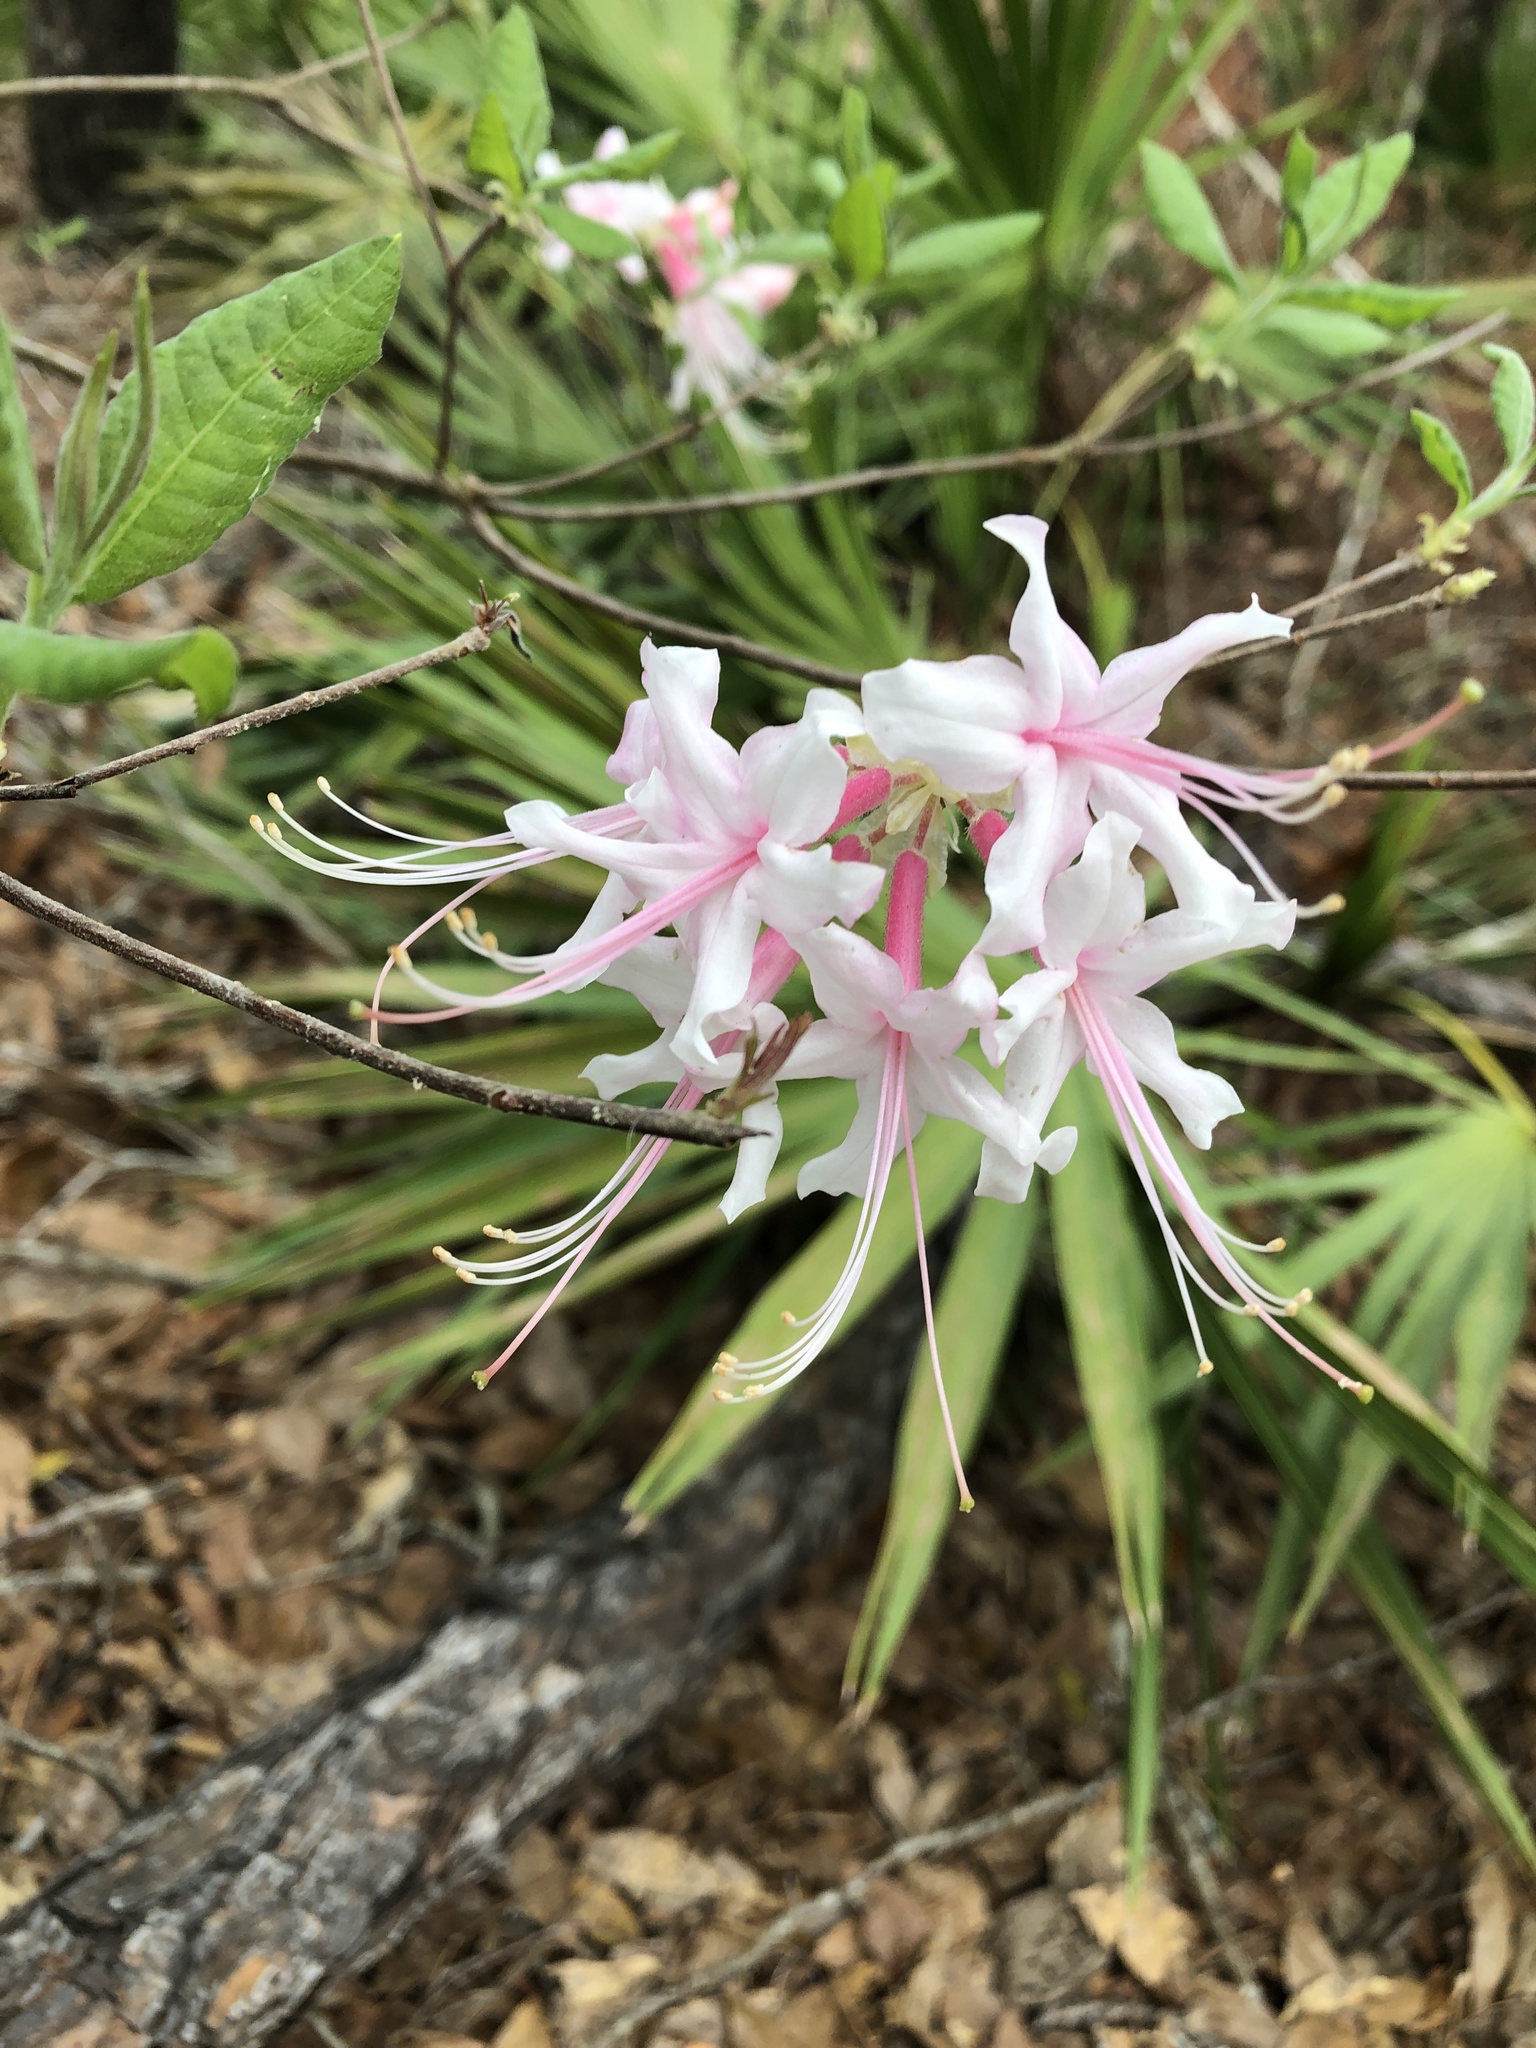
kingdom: Plantae
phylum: Tracheophyta
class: Magnoliopsida
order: Ericales
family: Ericaceae
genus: Rhododendron
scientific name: Rhododendron canescens
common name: Mountain azalea
